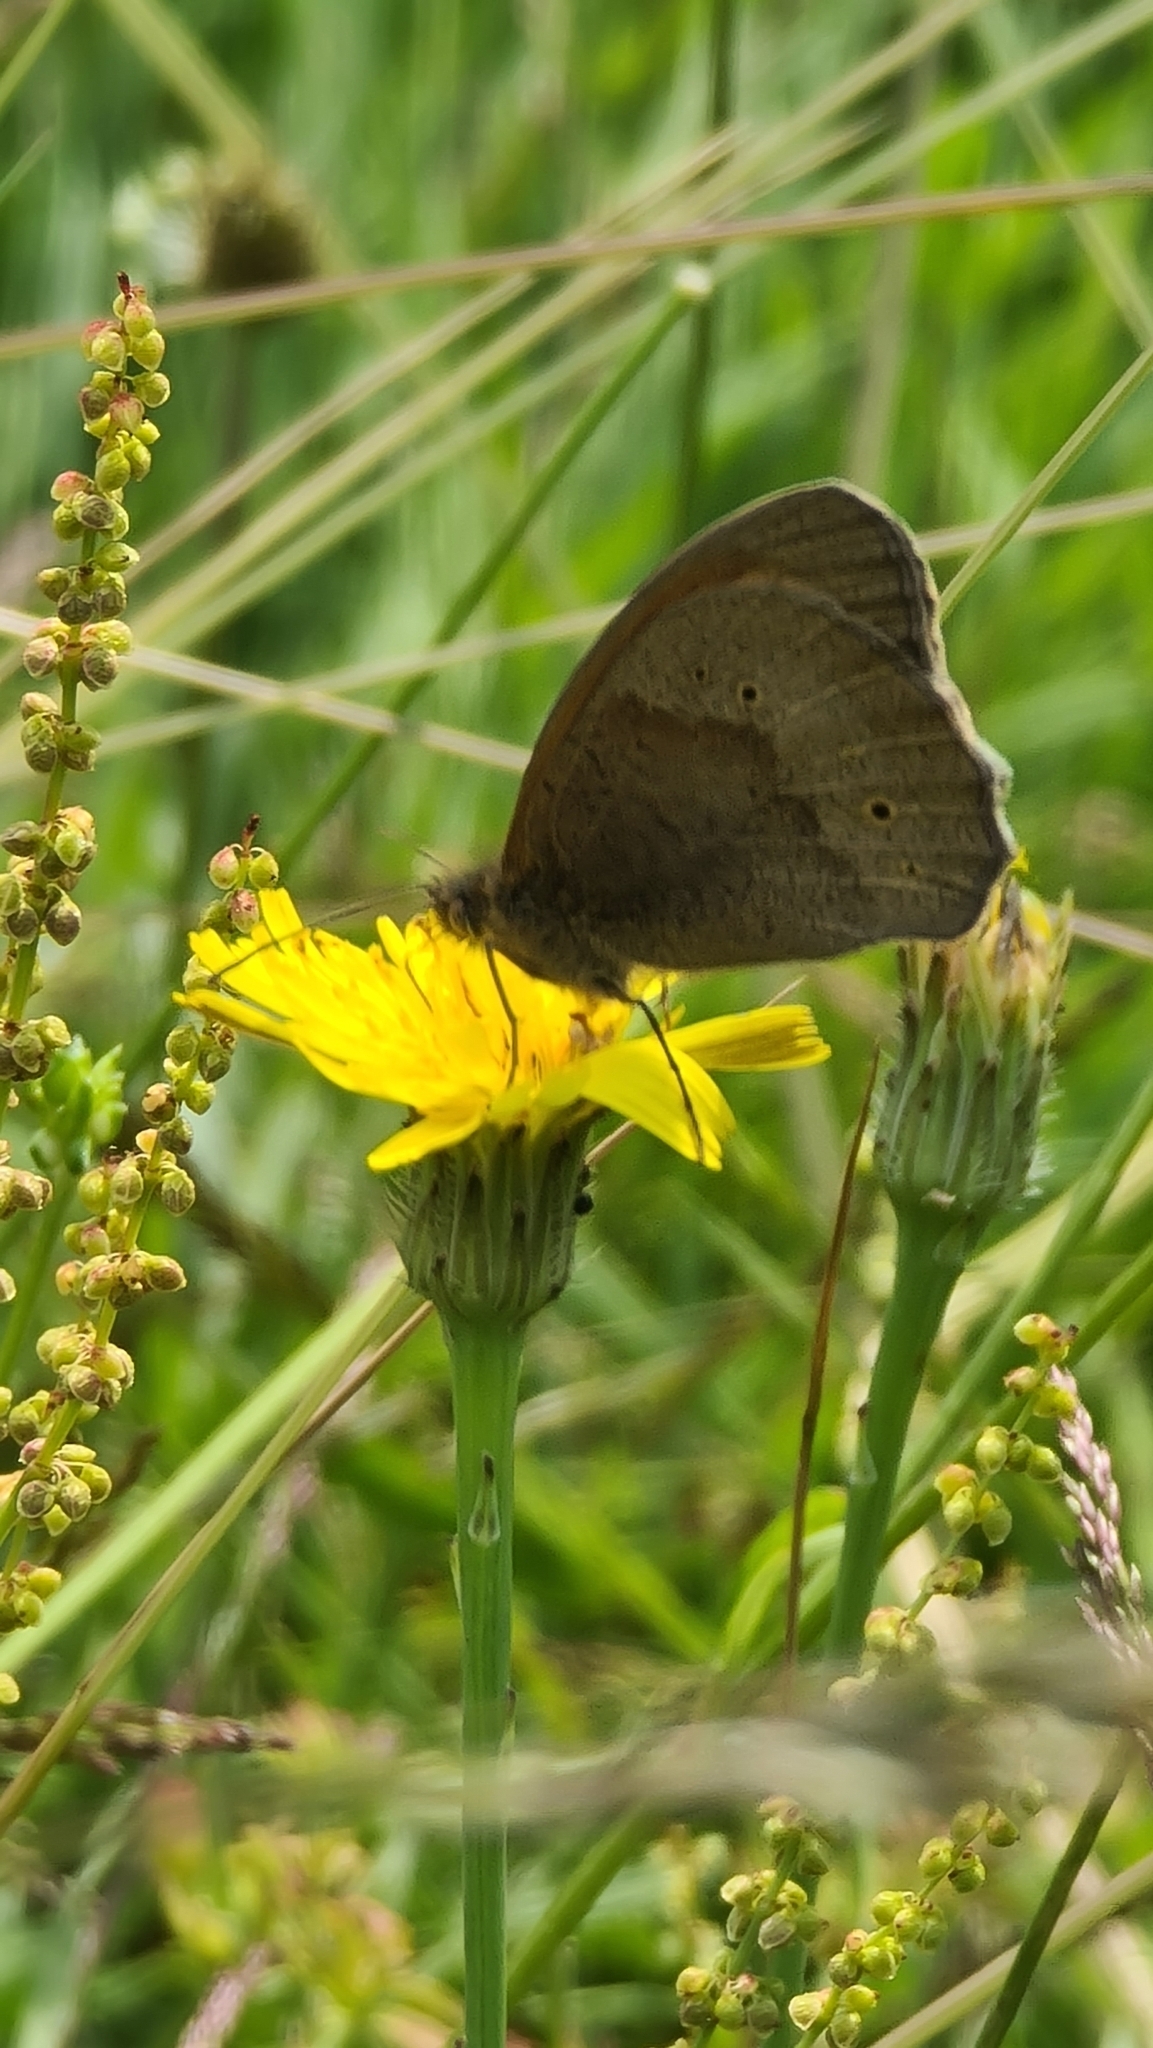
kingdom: Animalia
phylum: Arthropoda
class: Insecta
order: Lepidoptera
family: Nymphalidae
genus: Maniola
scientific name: Maniola jurtina
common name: Meadow brown
